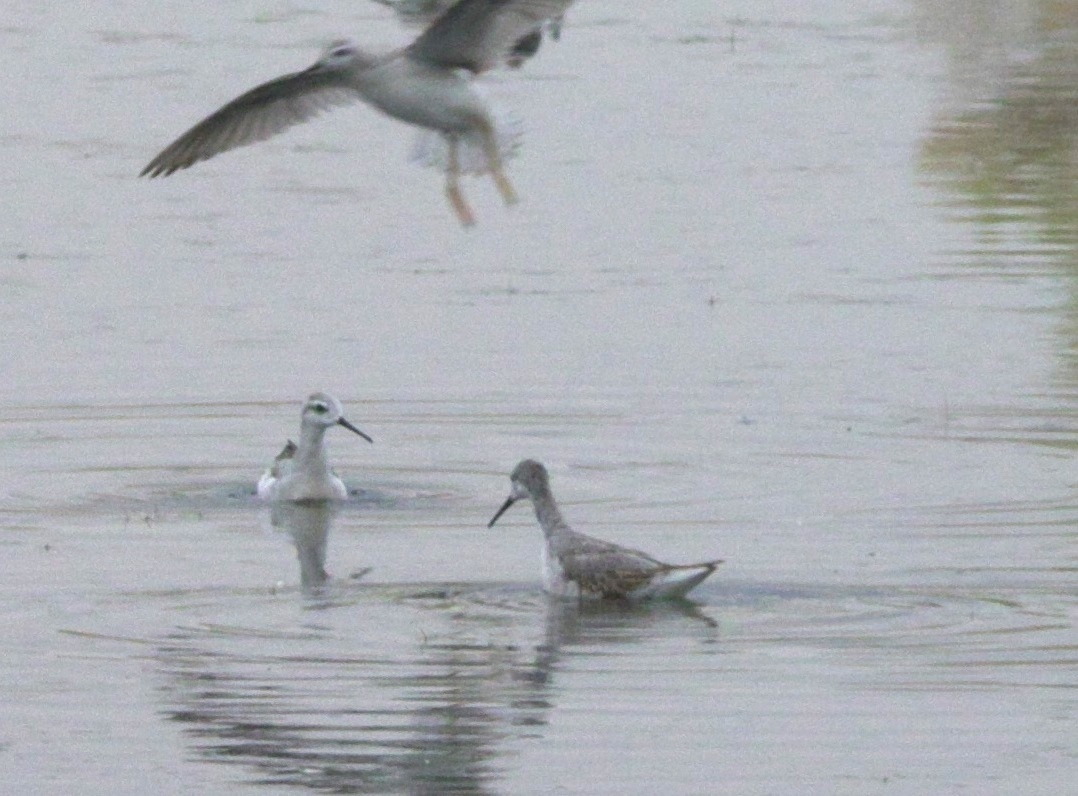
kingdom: Animalia
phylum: Chordata
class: Aves
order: Charadriiformes
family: Scolopacidae
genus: Phalaropus
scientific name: Phalaropus tricolor
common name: Wilson's phalarope
